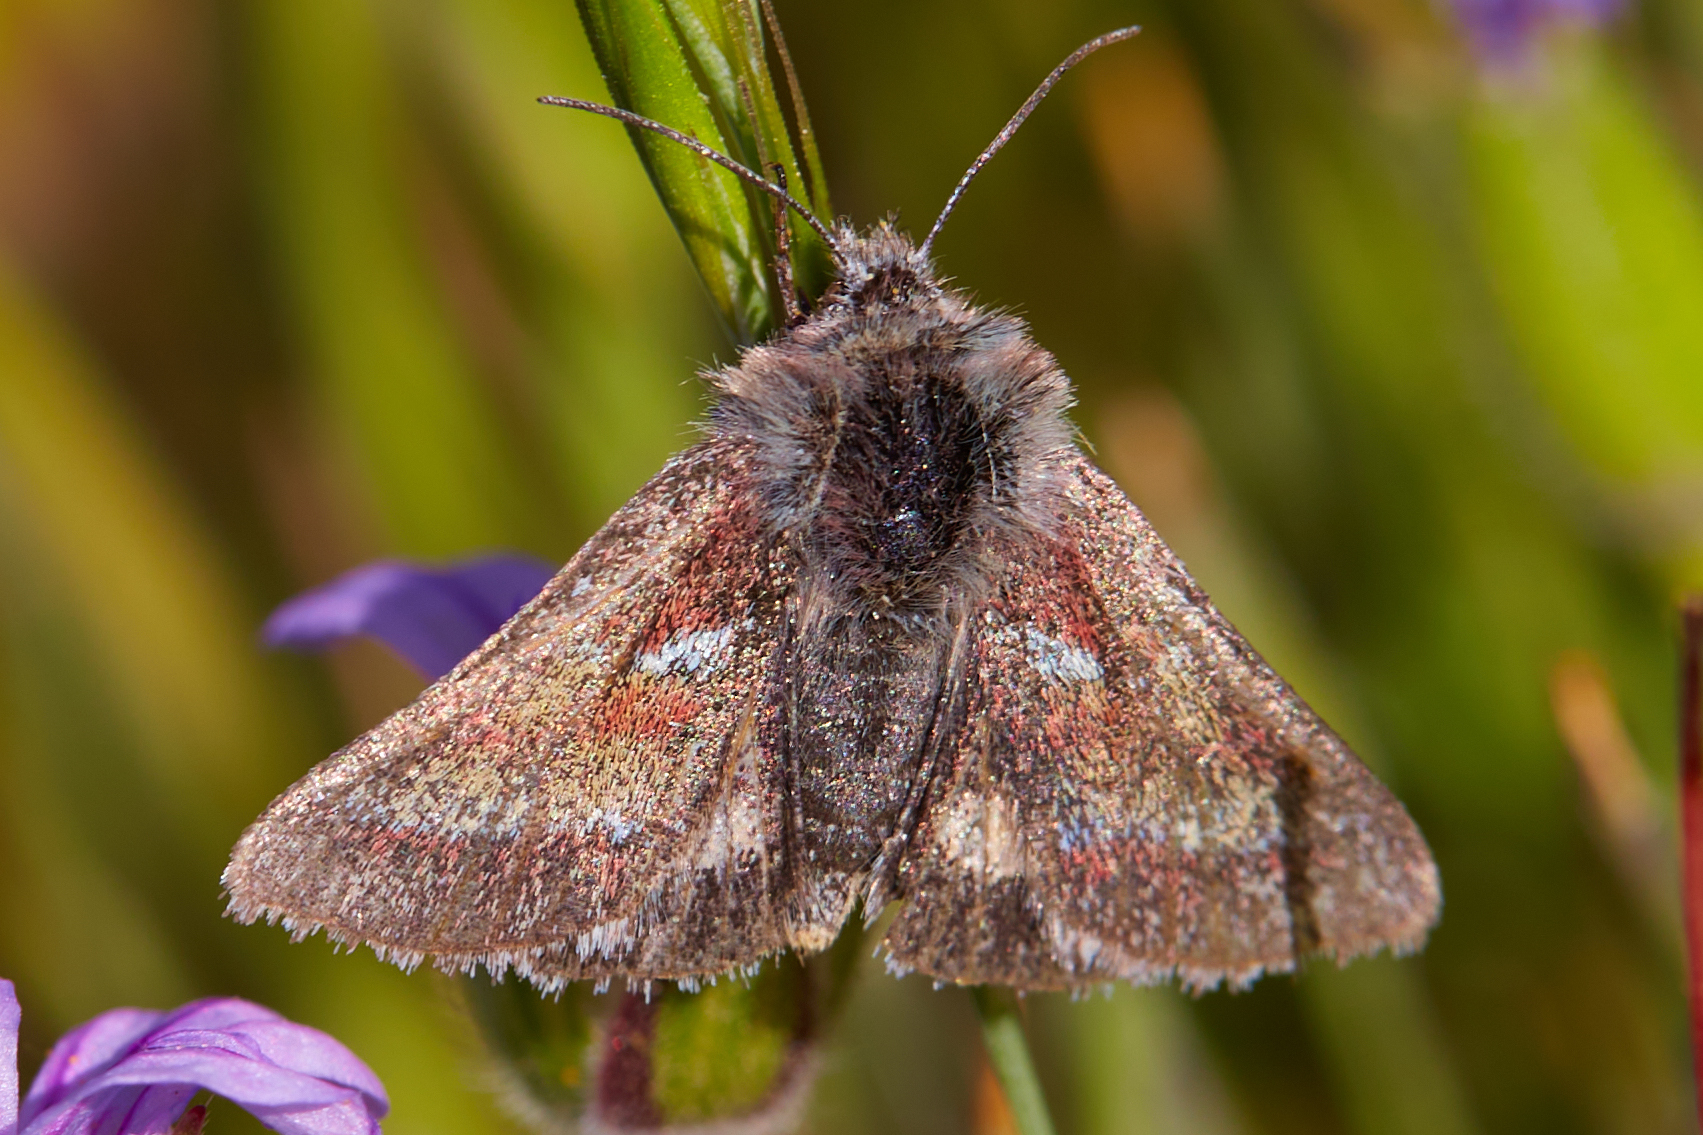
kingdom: Animalia
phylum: Arthropoda
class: Insecta
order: Lepidoptera
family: Noctuidae
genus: Schinia
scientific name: Schinia pulchripennis
